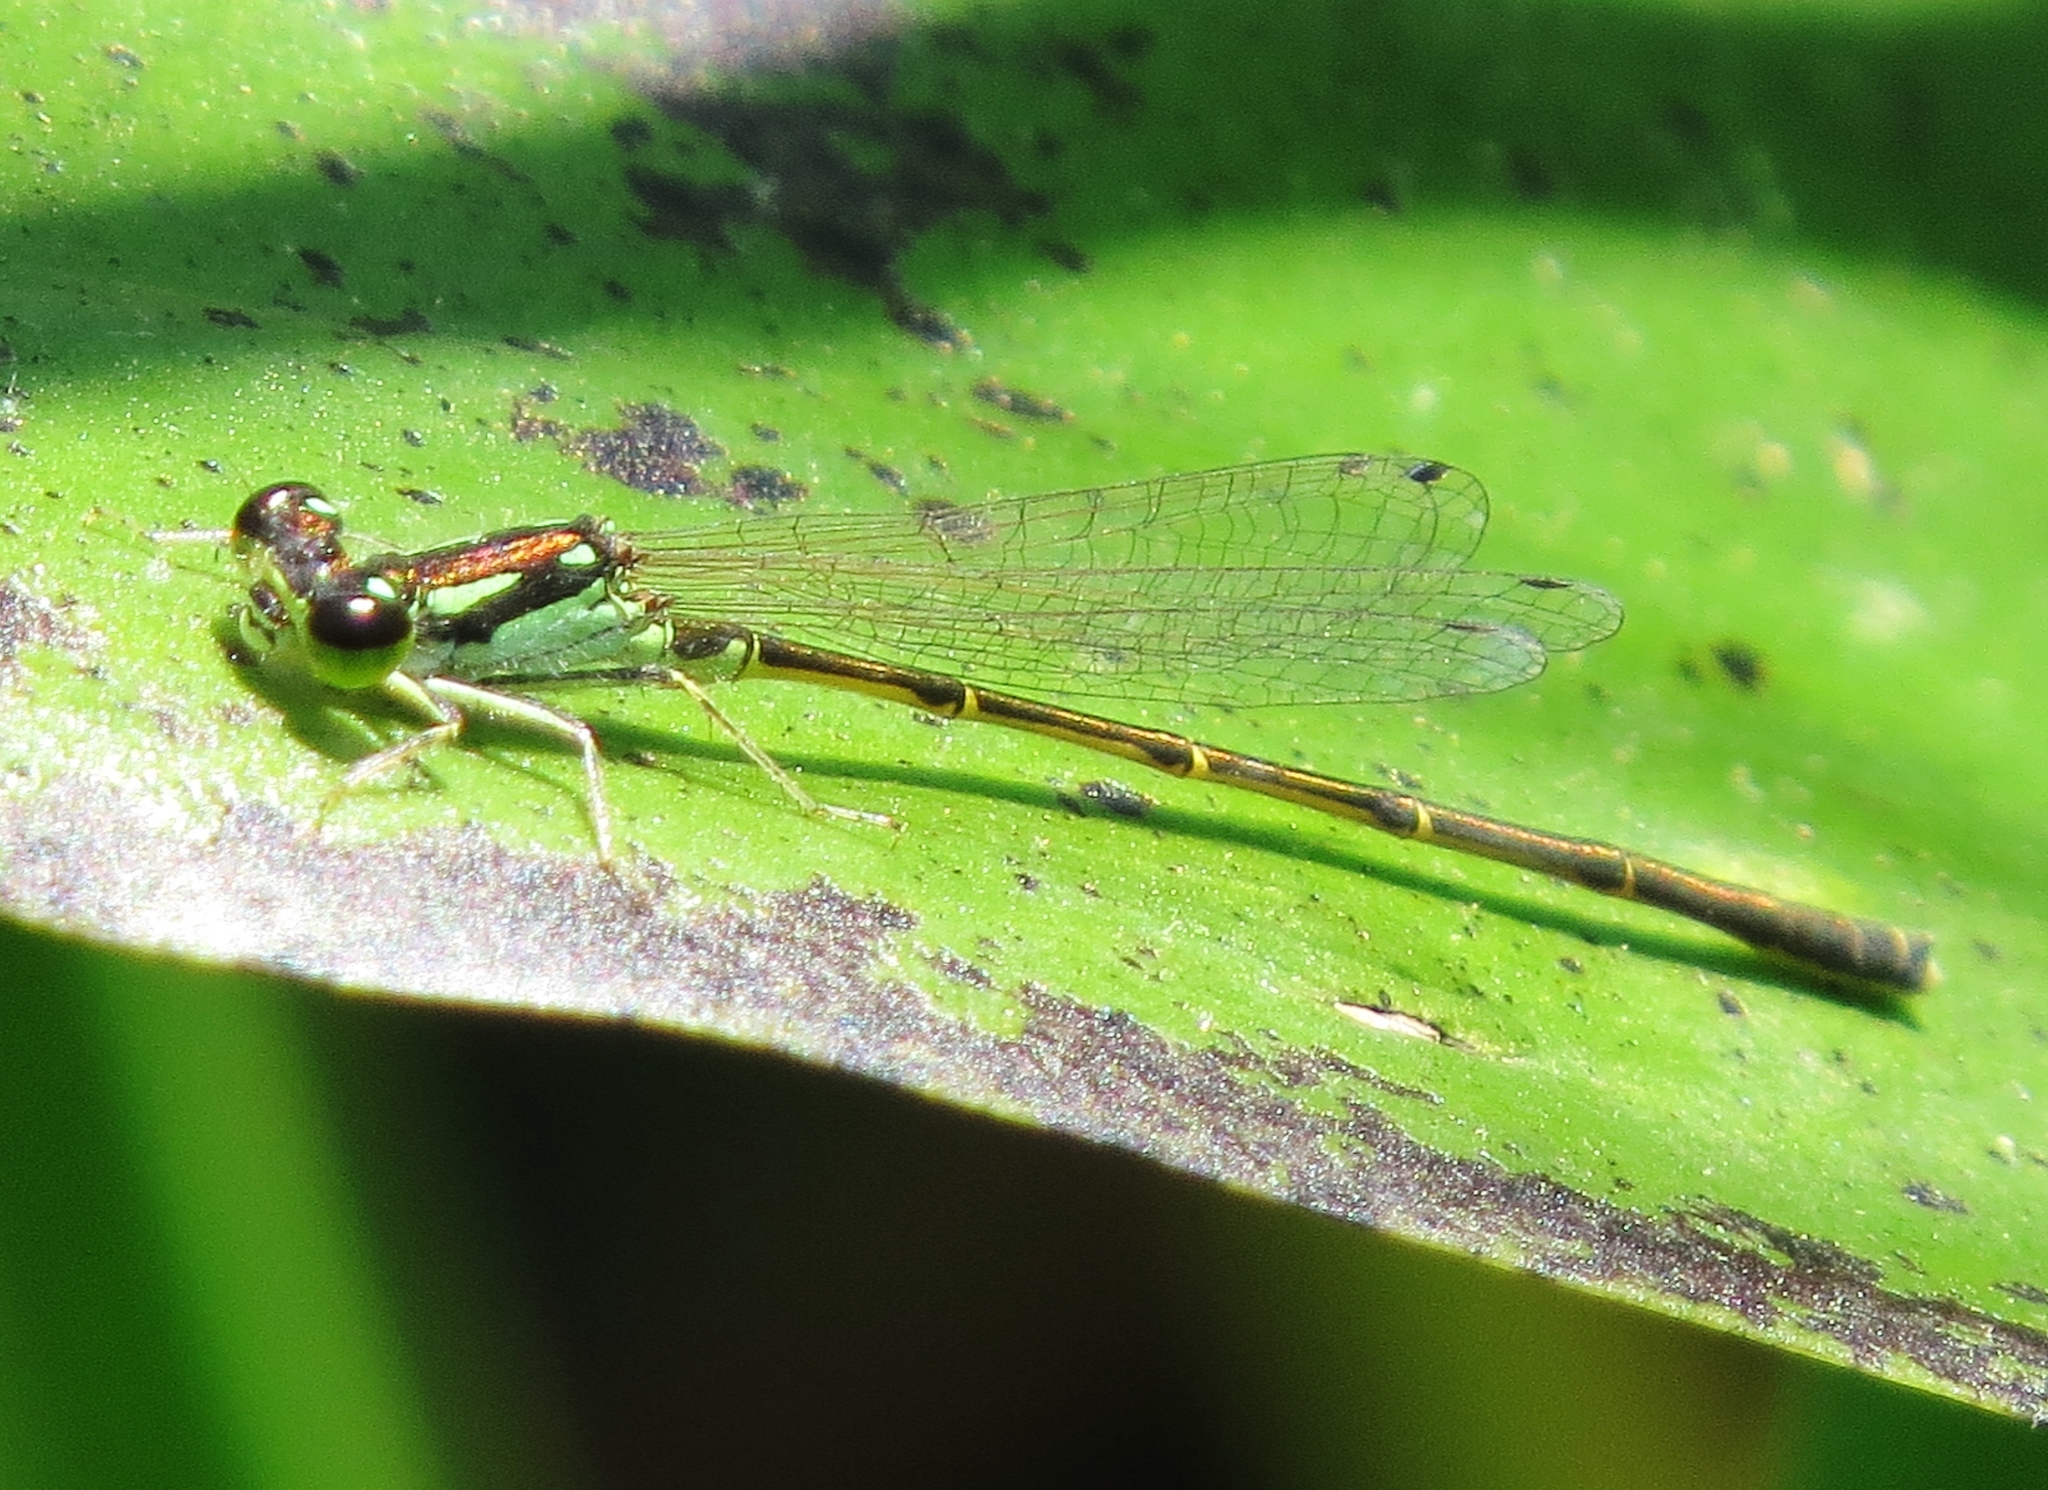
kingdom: Animalia
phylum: Arthropoda
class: Insecta
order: Odonata
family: Coenagrionidae
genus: Ischnura
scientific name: Ischnura posita
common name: Fragile forktail
